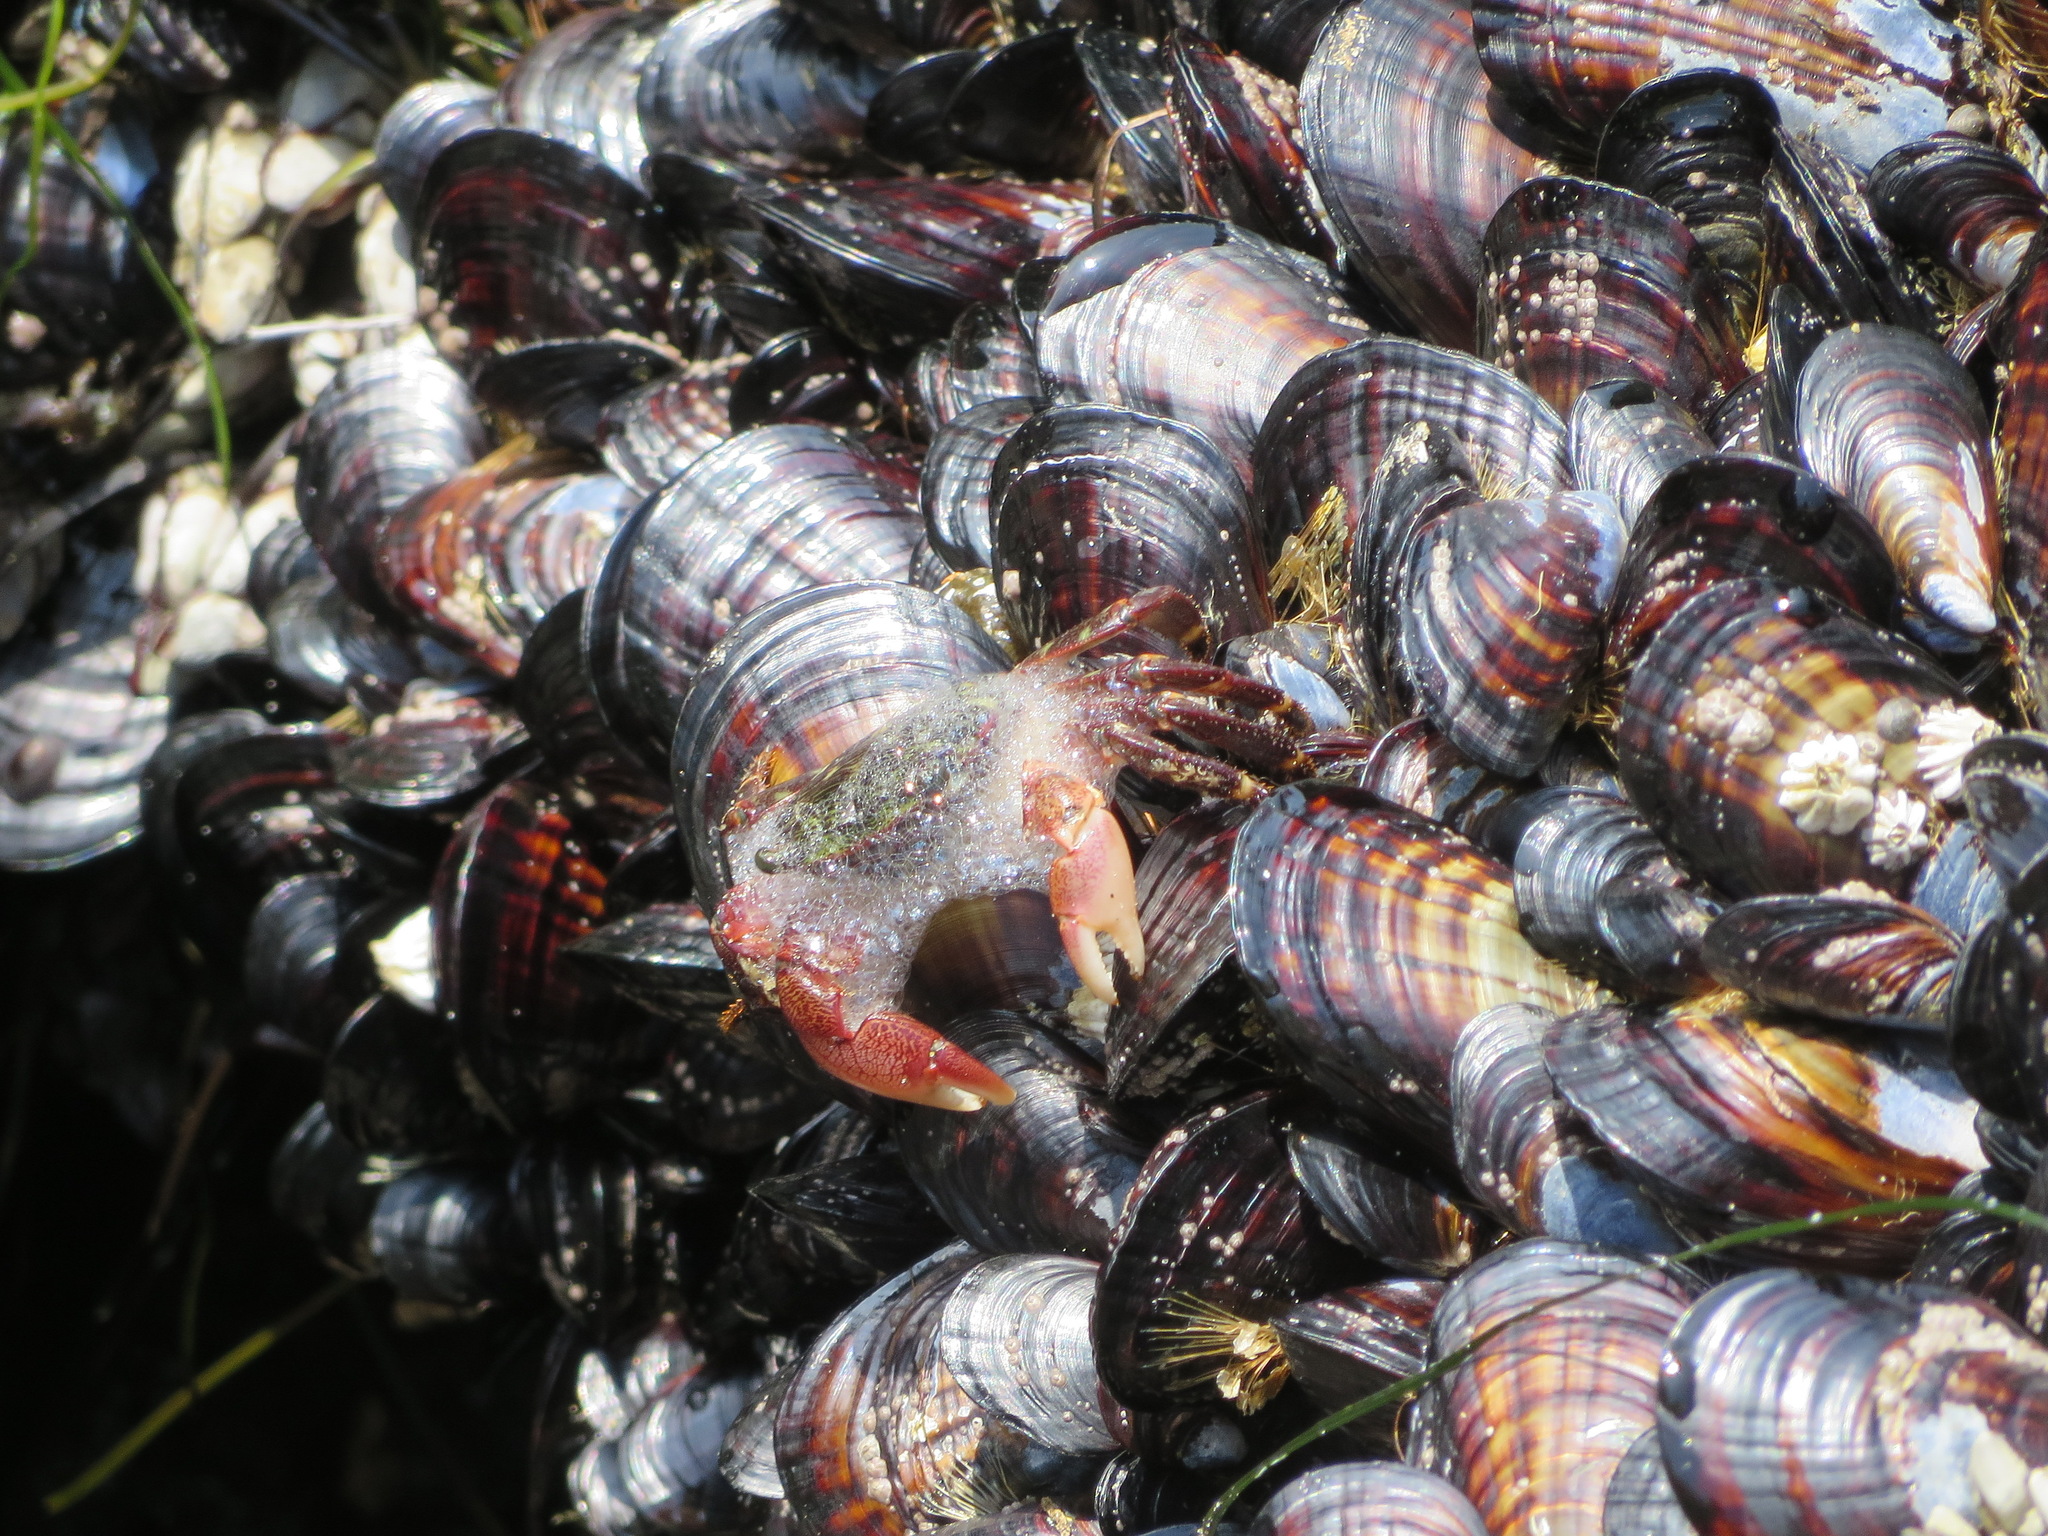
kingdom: Animalia
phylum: Arthropoda
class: Malacostraca
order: Decapoda
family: Grapsidae
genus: Pachygrapsus
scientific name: Pachygrapsus crassipes
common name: Striped shore crab
